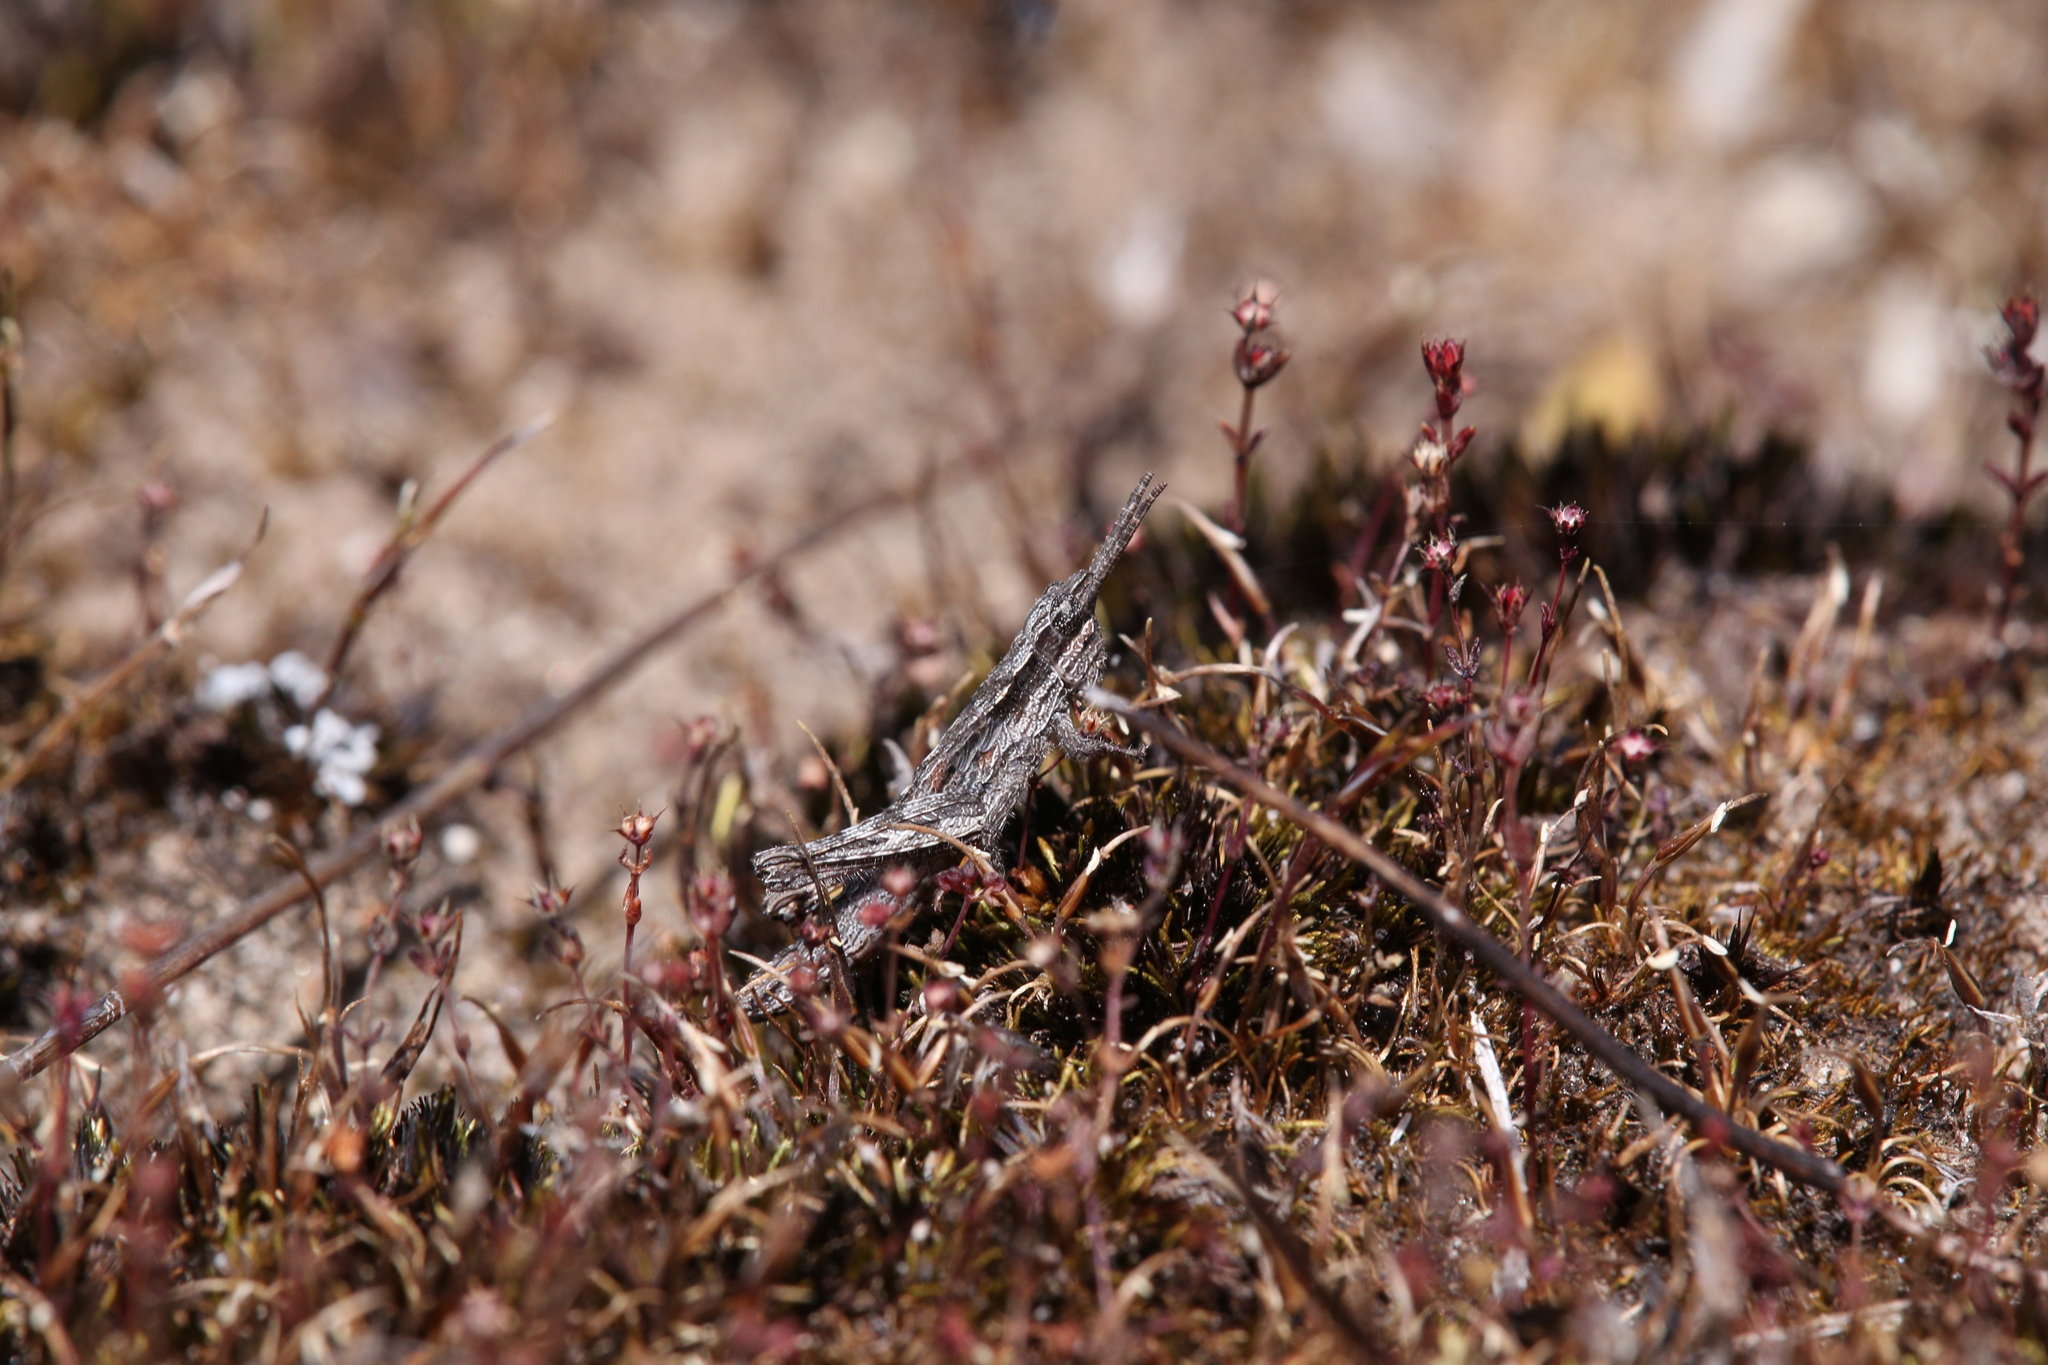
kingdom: Animalia
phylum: Arthropoda
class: Insecta
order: Orthoptera
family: Acrididae
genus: Coryphistes
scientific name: Coryphistes ruricola
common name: Bark-mimicking grasshopper
